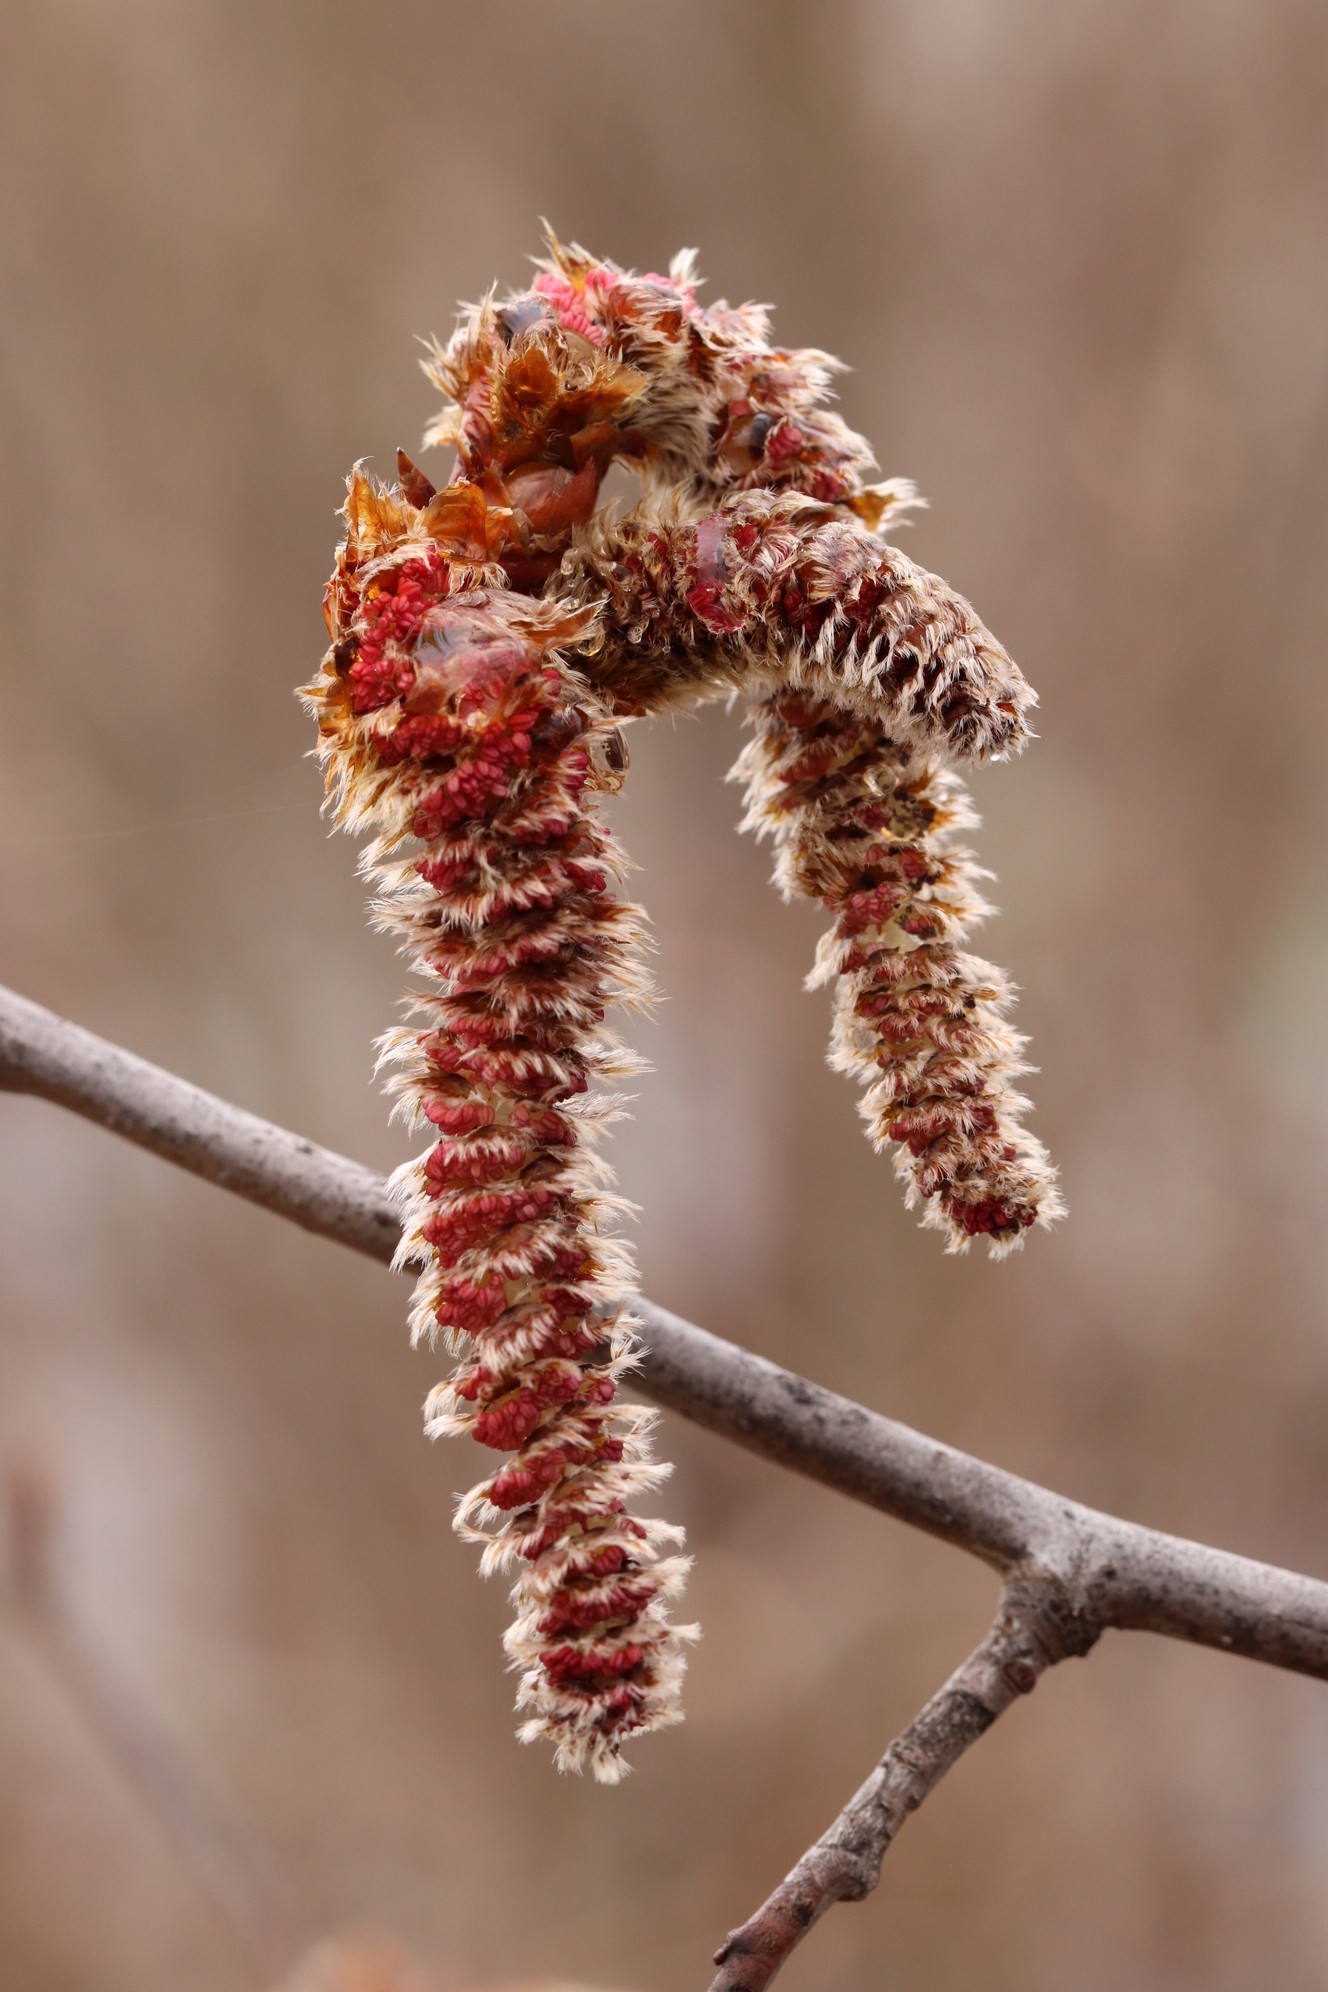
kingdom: Plantae
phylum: Tracheophyta
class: Magnoliopsida
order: Malpighiales
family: Salicaceae
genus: Populus
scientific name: Populus tremula
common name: European aspen
